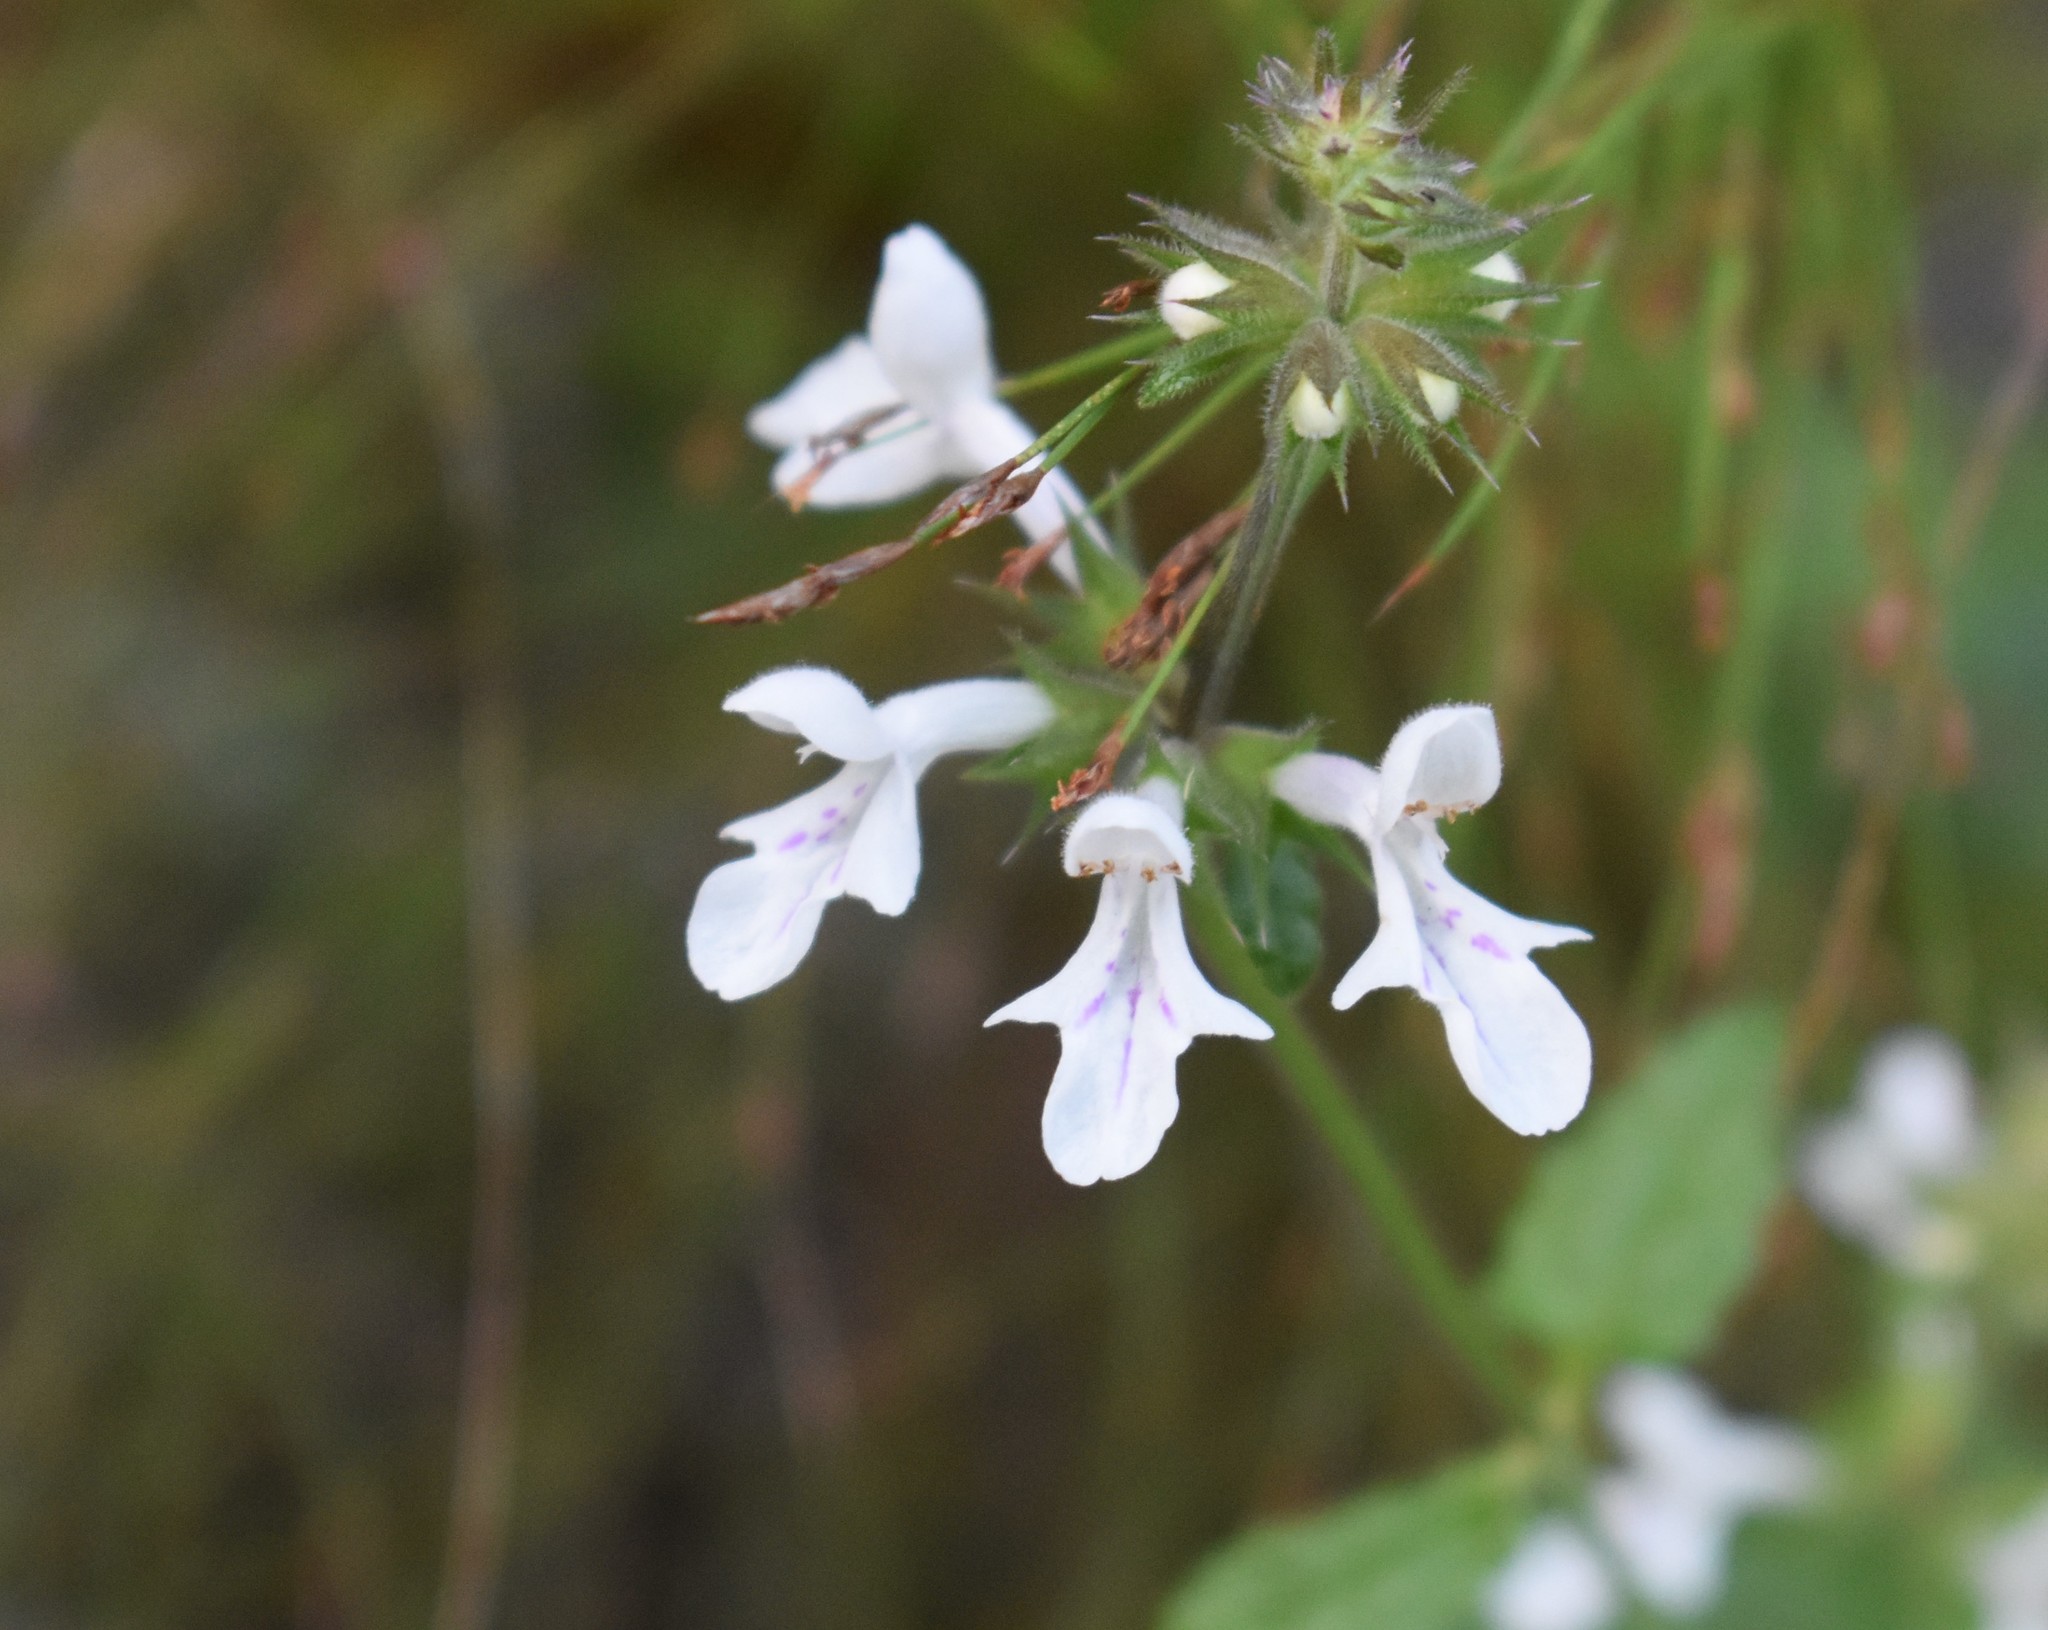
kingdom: Plantae
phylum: Tracheophyta
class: Magnoliopsida
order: Lamiales
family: Lamiaceae
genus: Stachys
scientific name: Stachys aethiopica
